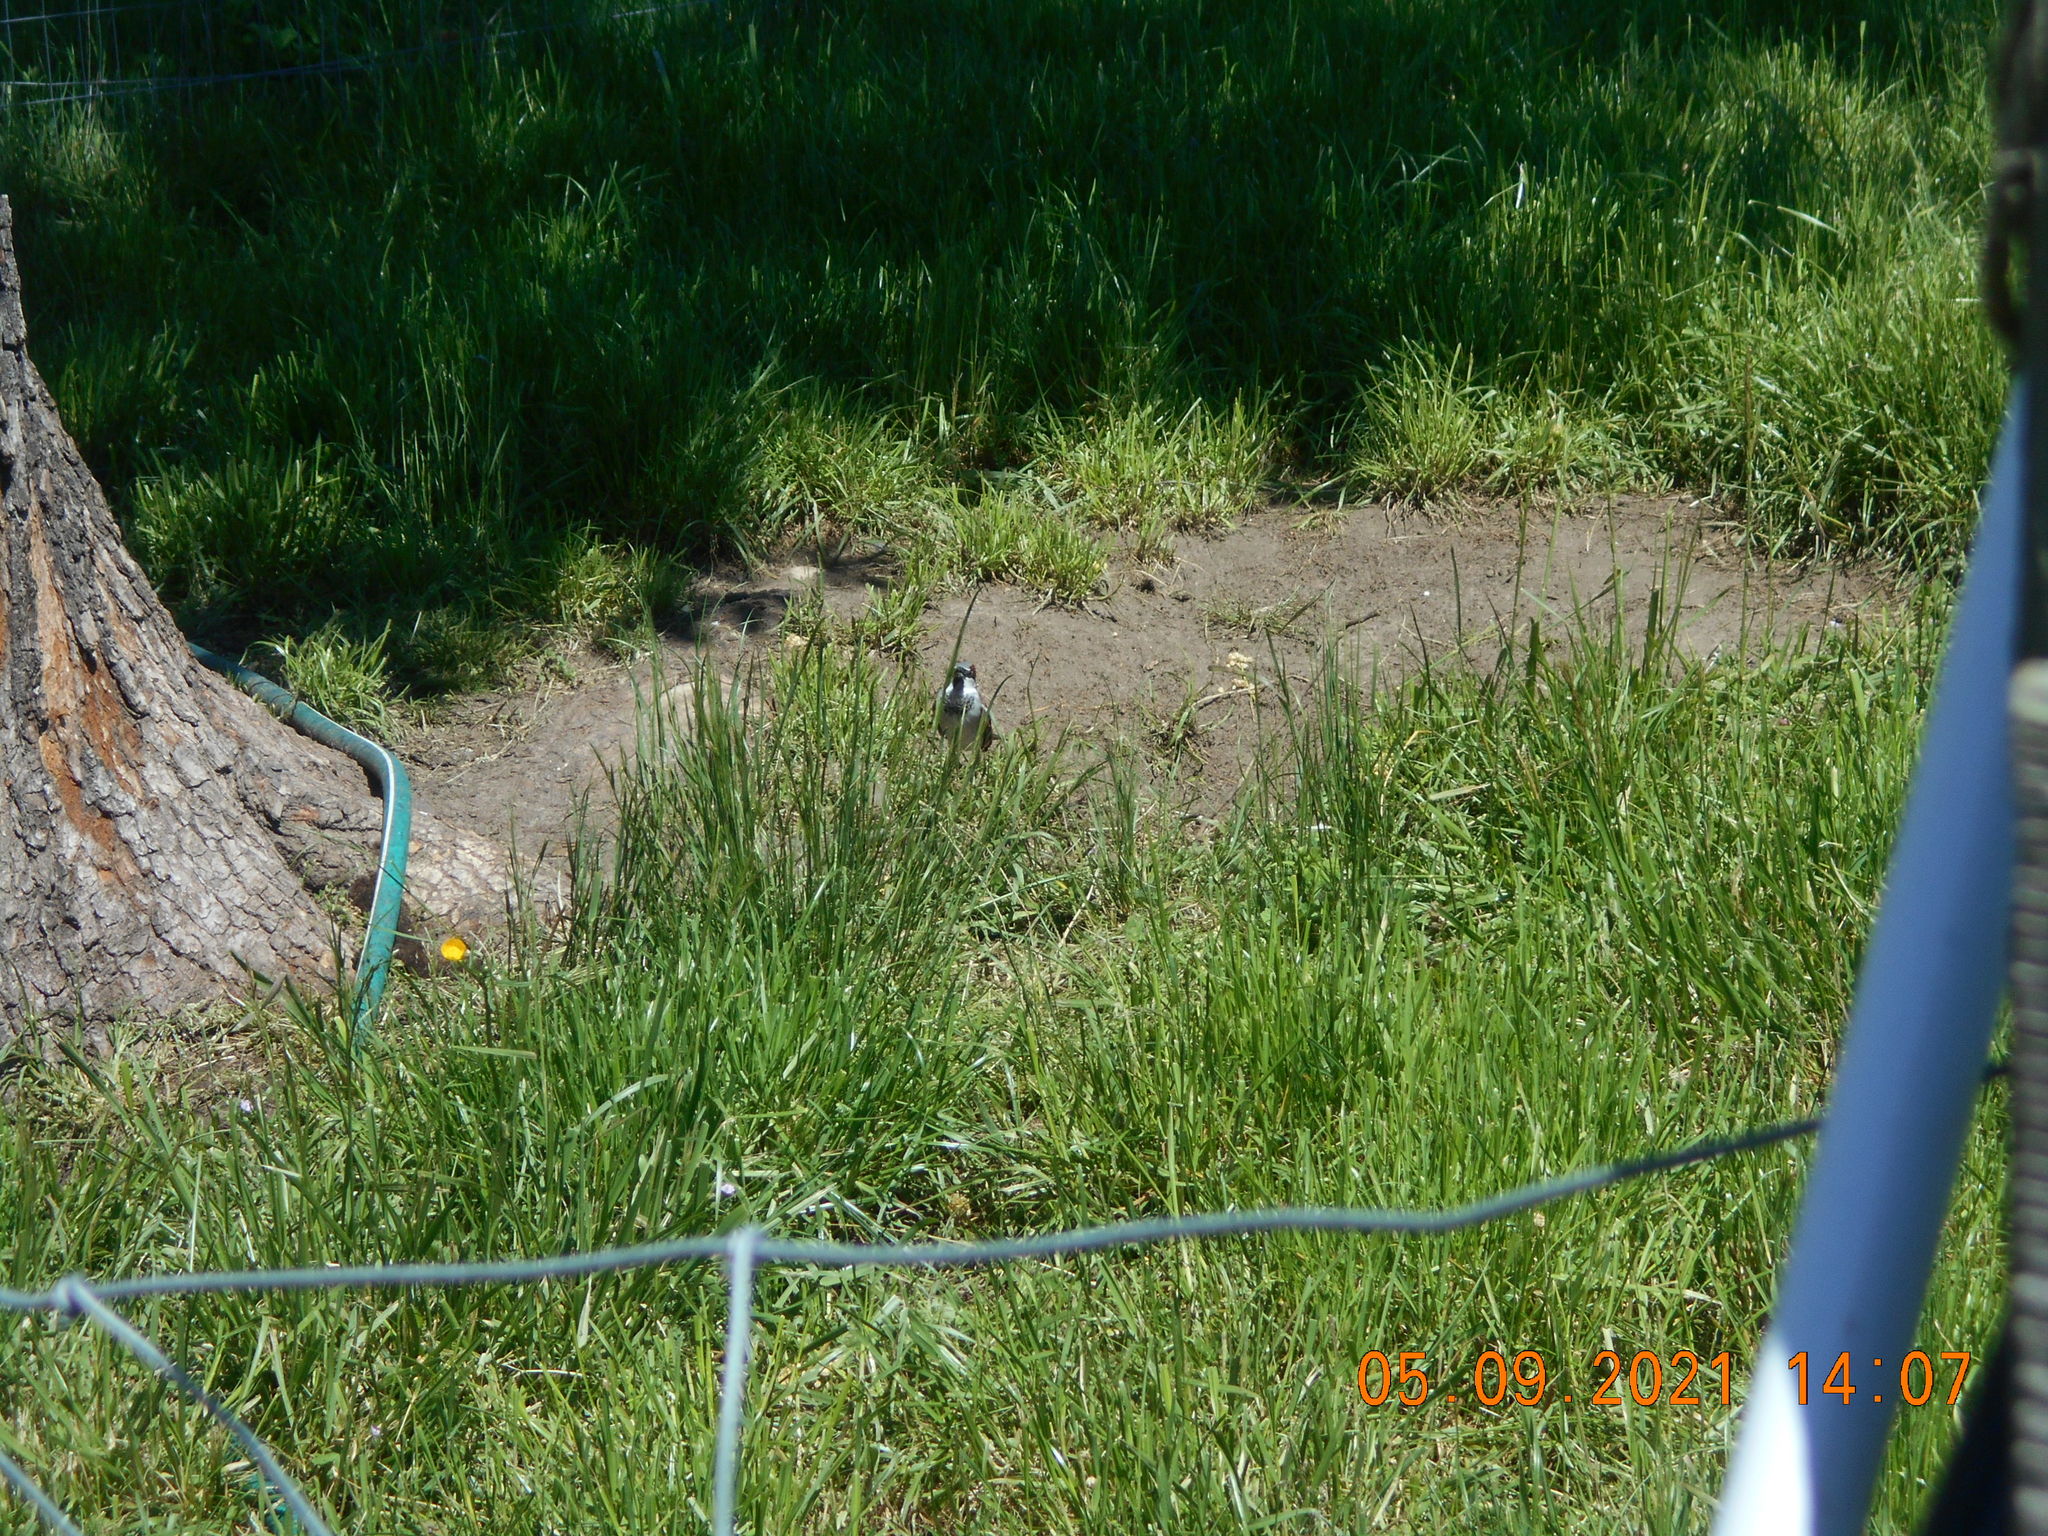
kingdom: Animalia
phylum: Chordata
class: Aves
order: Passeriformes
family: Passeridae
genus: Passer
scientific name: Passer domesticus
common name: House sparrow
